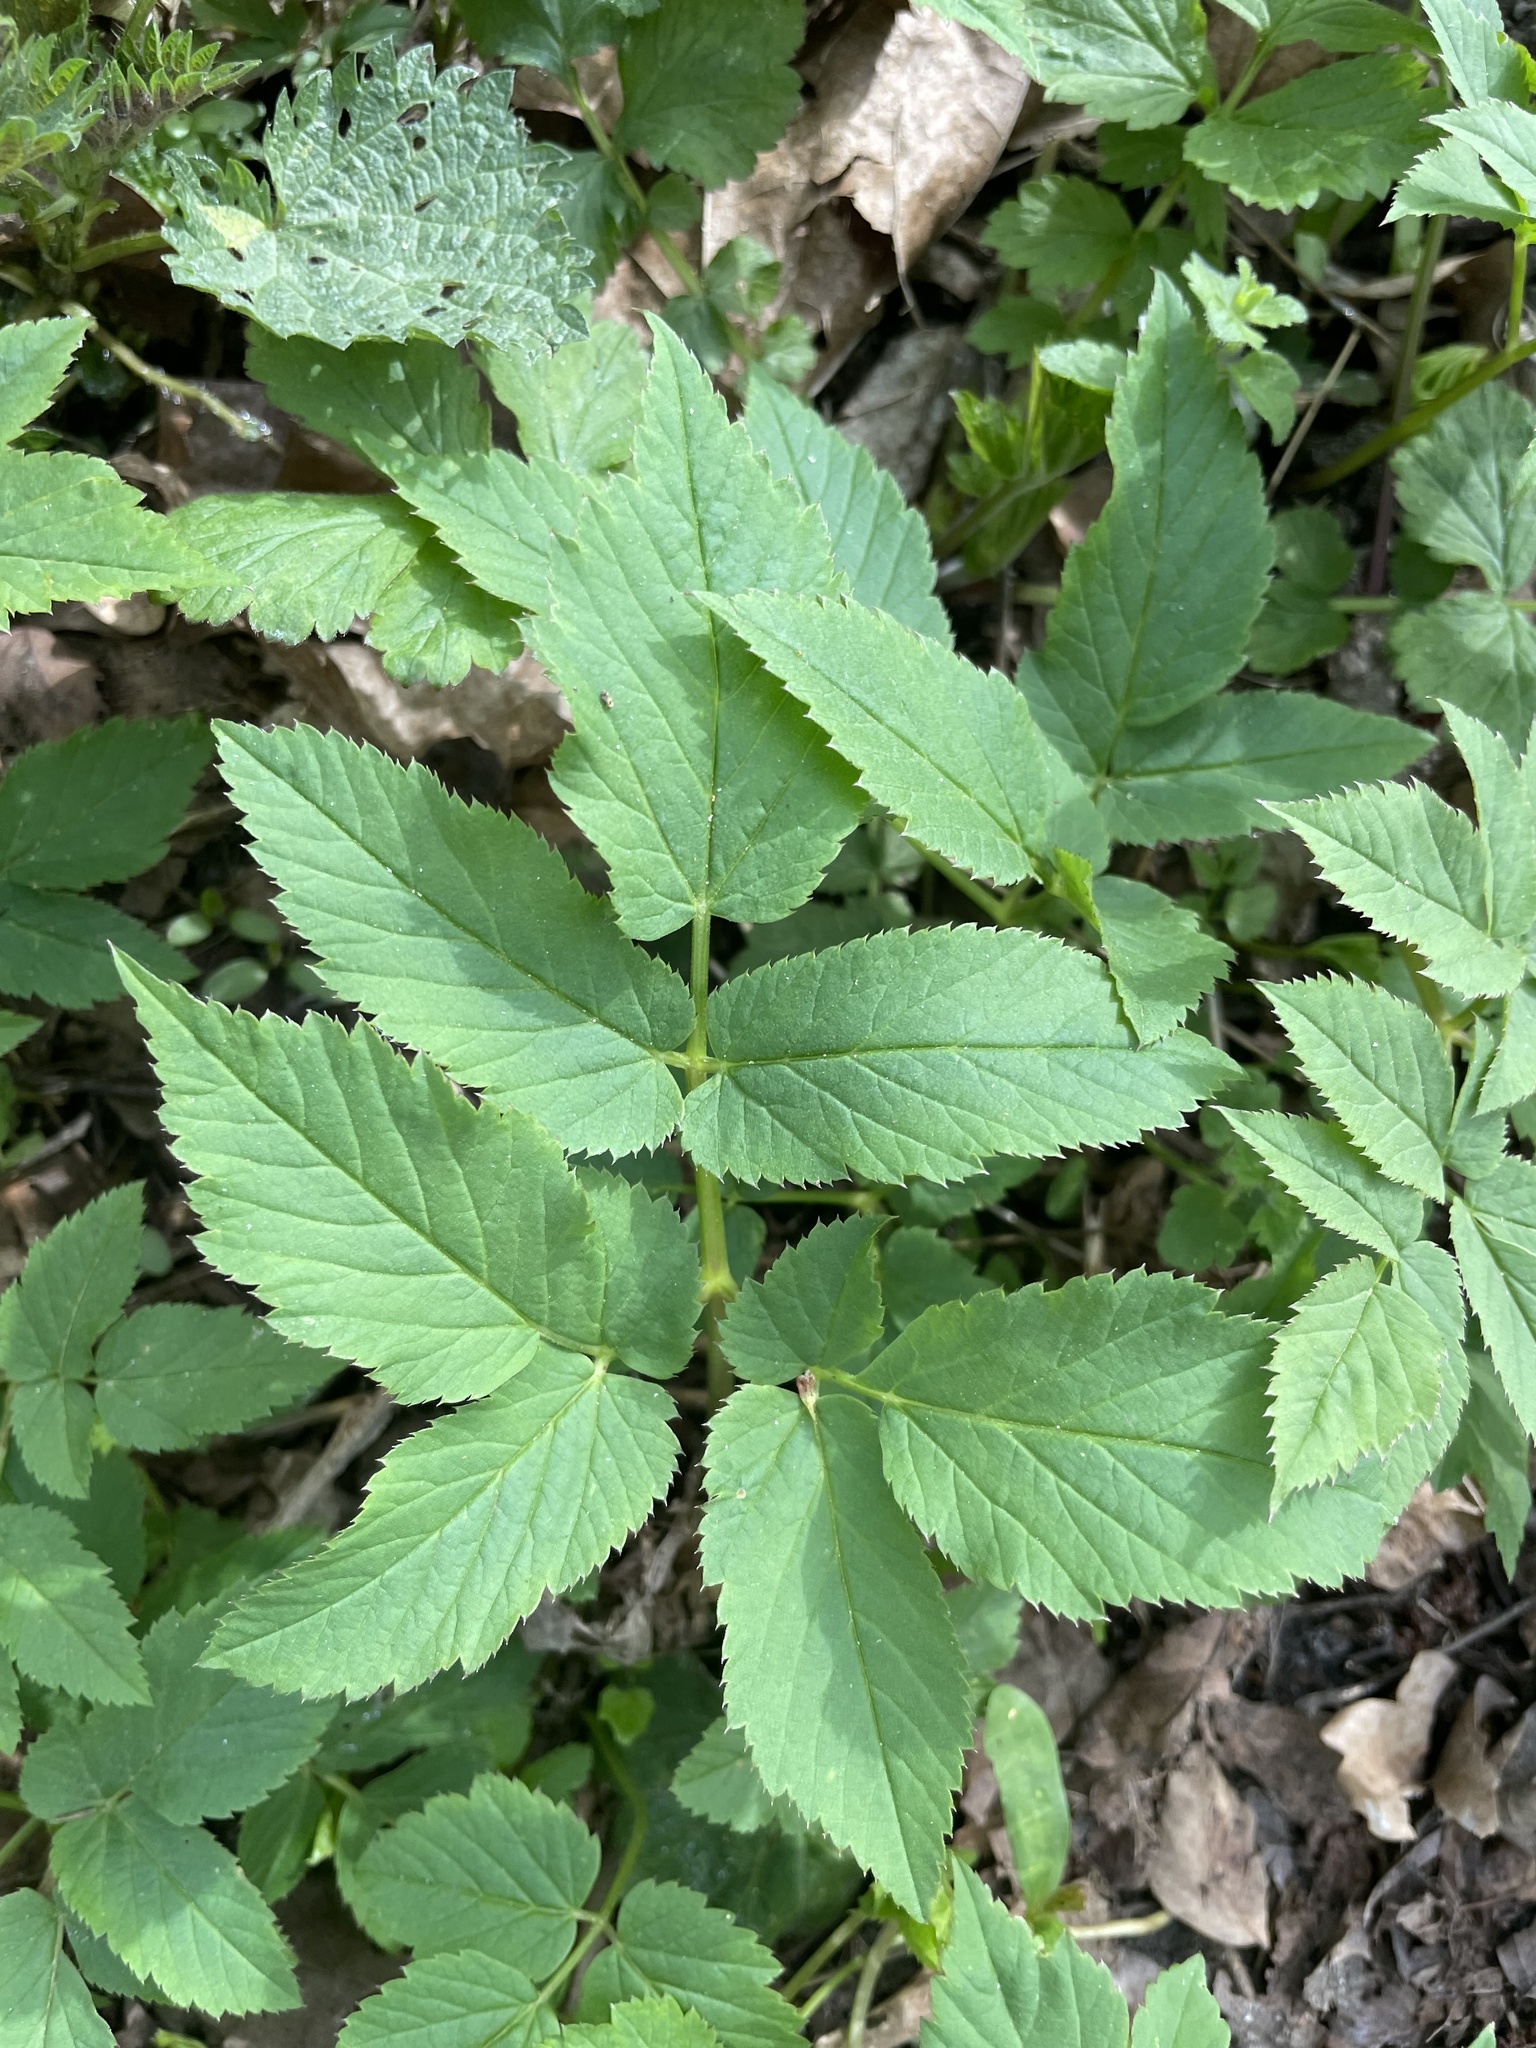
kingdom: Plantae
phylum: Tracheophyta
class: Magnoliopsida
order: Apiales
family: Apiaceae
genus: Aegopodium
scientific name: Aegopodium podagraria
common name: Ground-elder
